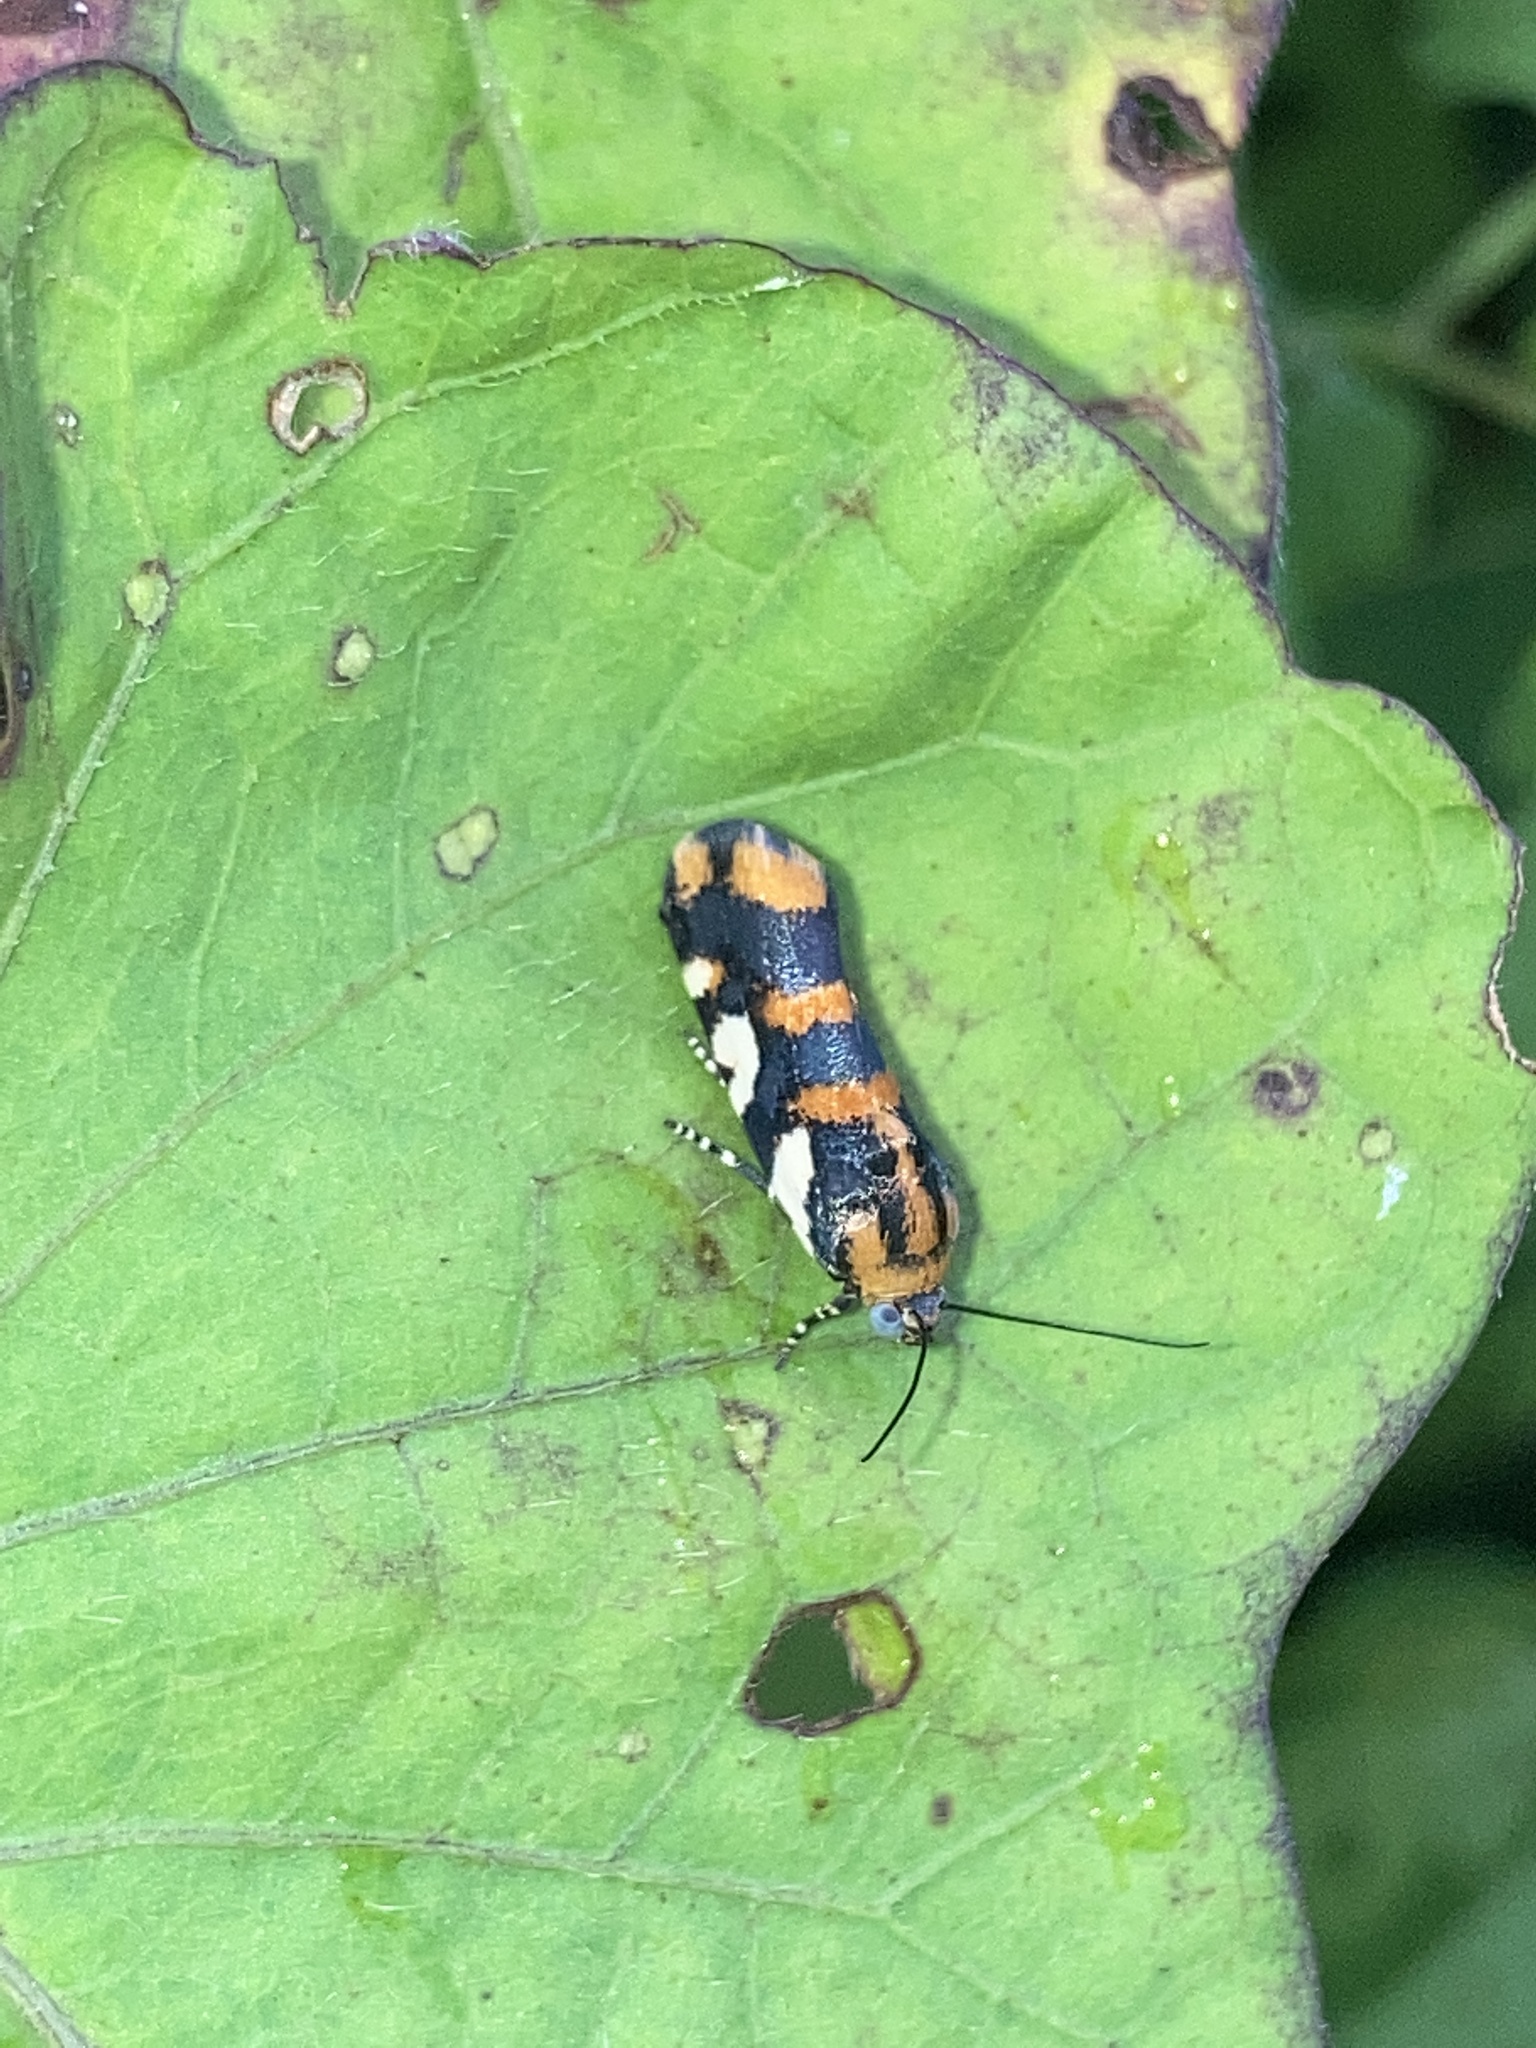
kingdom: Animalia
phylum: Arthropoda
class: Insecta
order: Lepidoptera
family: Noctuidae
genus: Acontia
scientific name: Acontia dama
